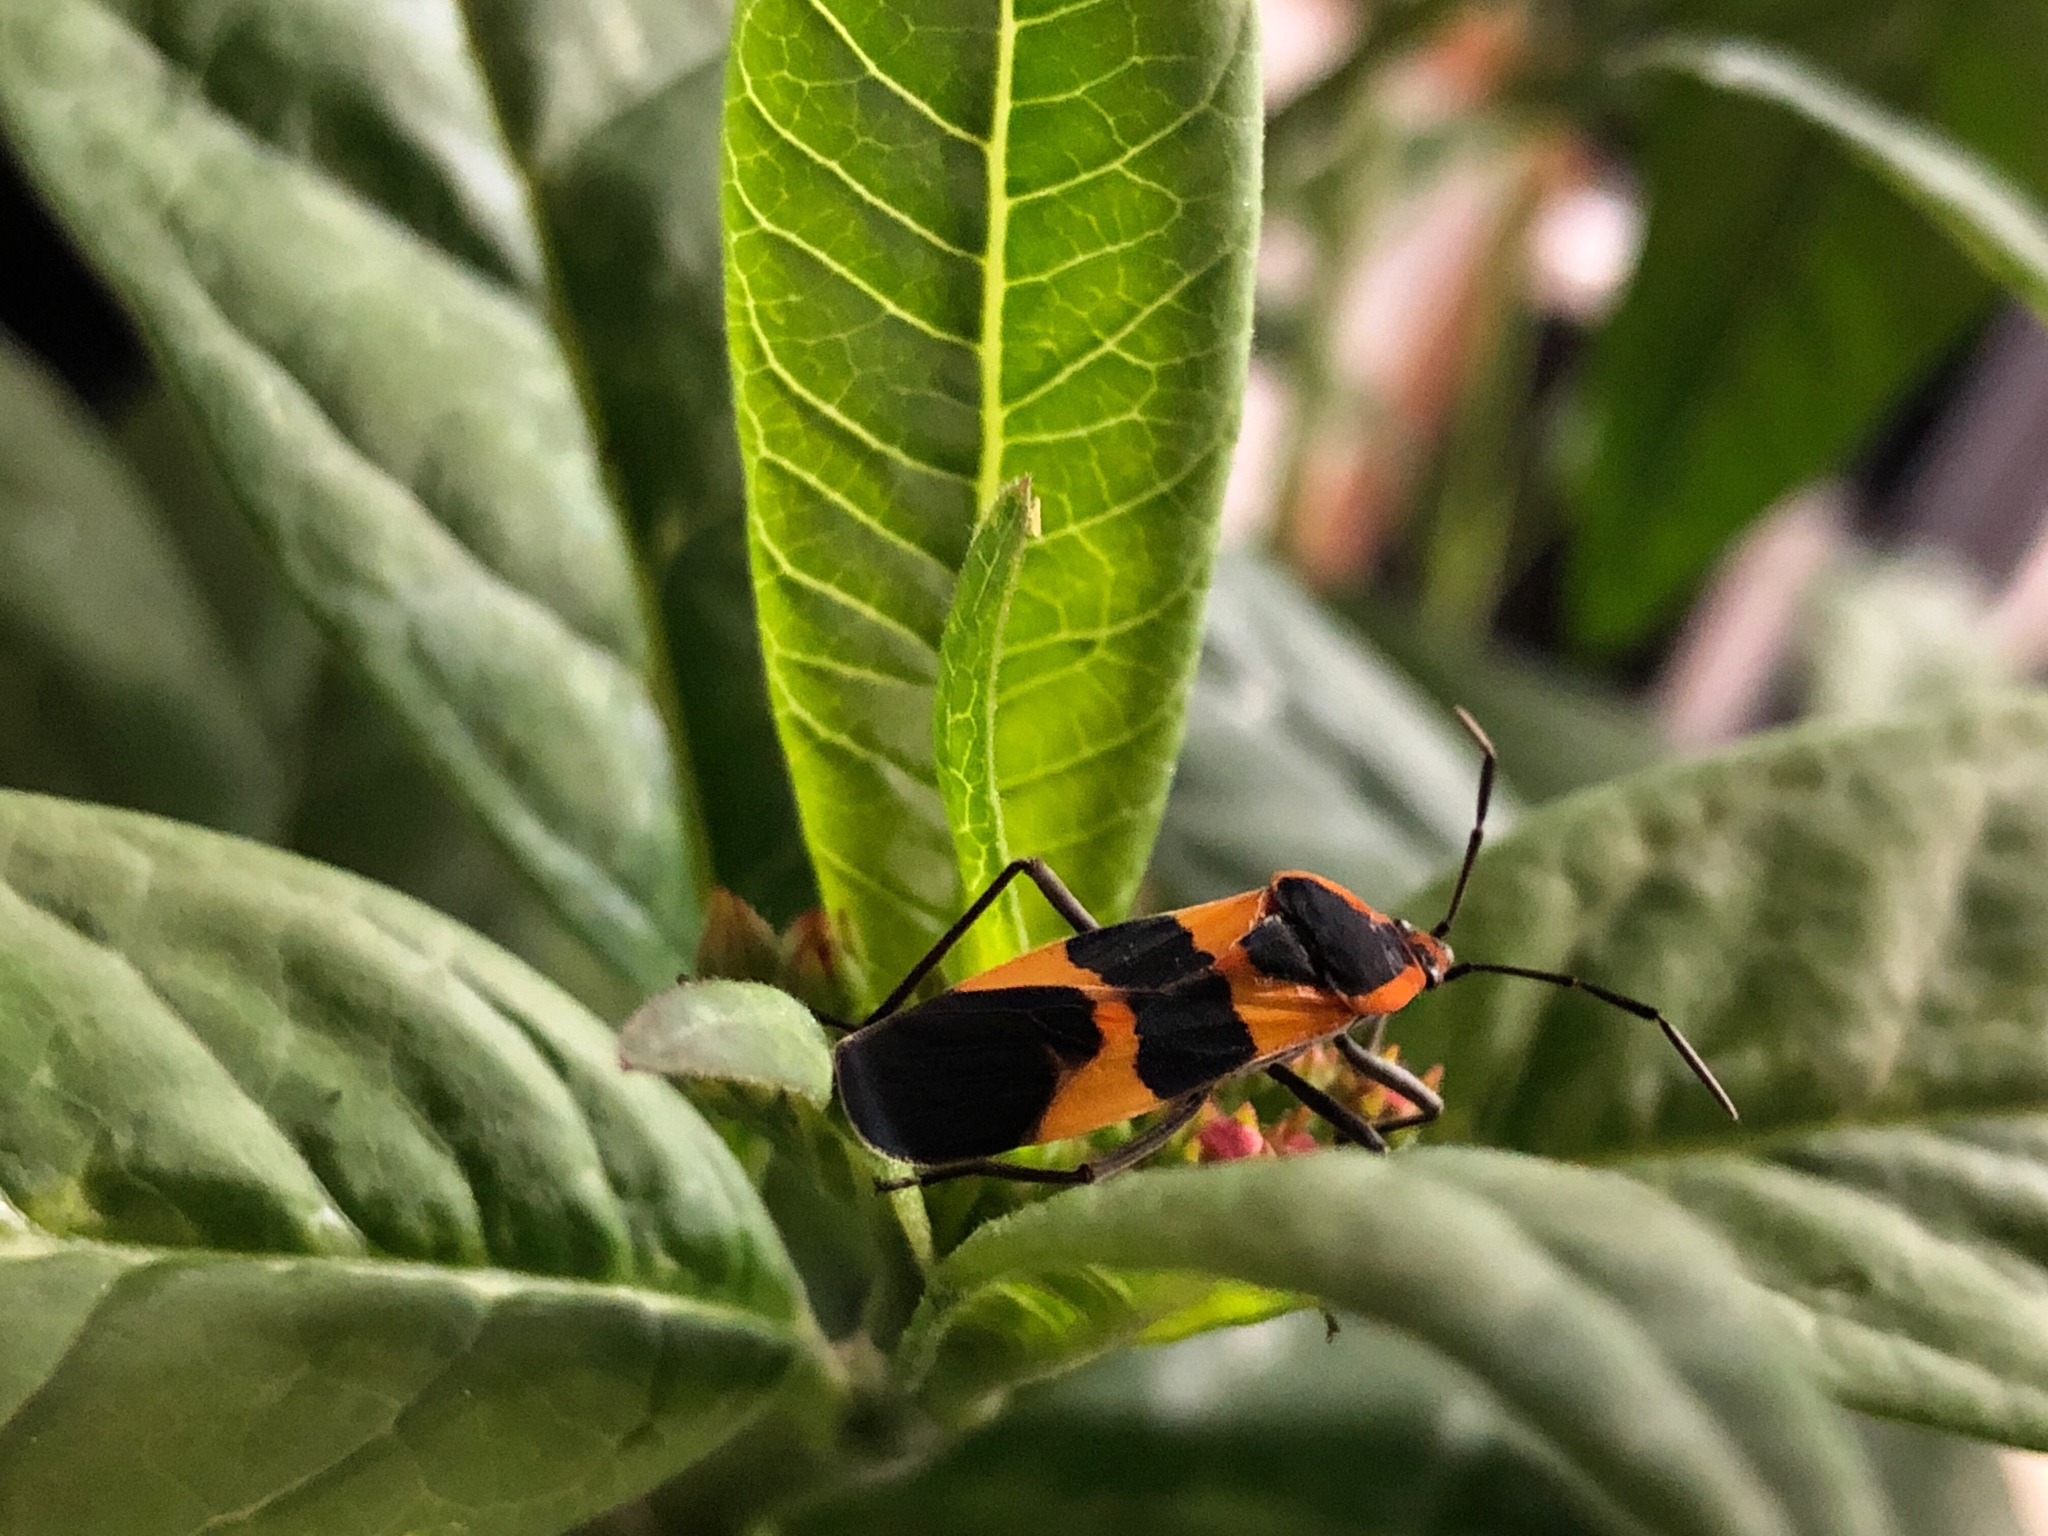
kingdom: Animalia
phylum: Arthropoda
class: Insecta
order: Hemiptera
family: Lygaeidae
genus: Oncopeltus
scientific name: Oncopeltus fasciatus
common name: Large milkweed bug
